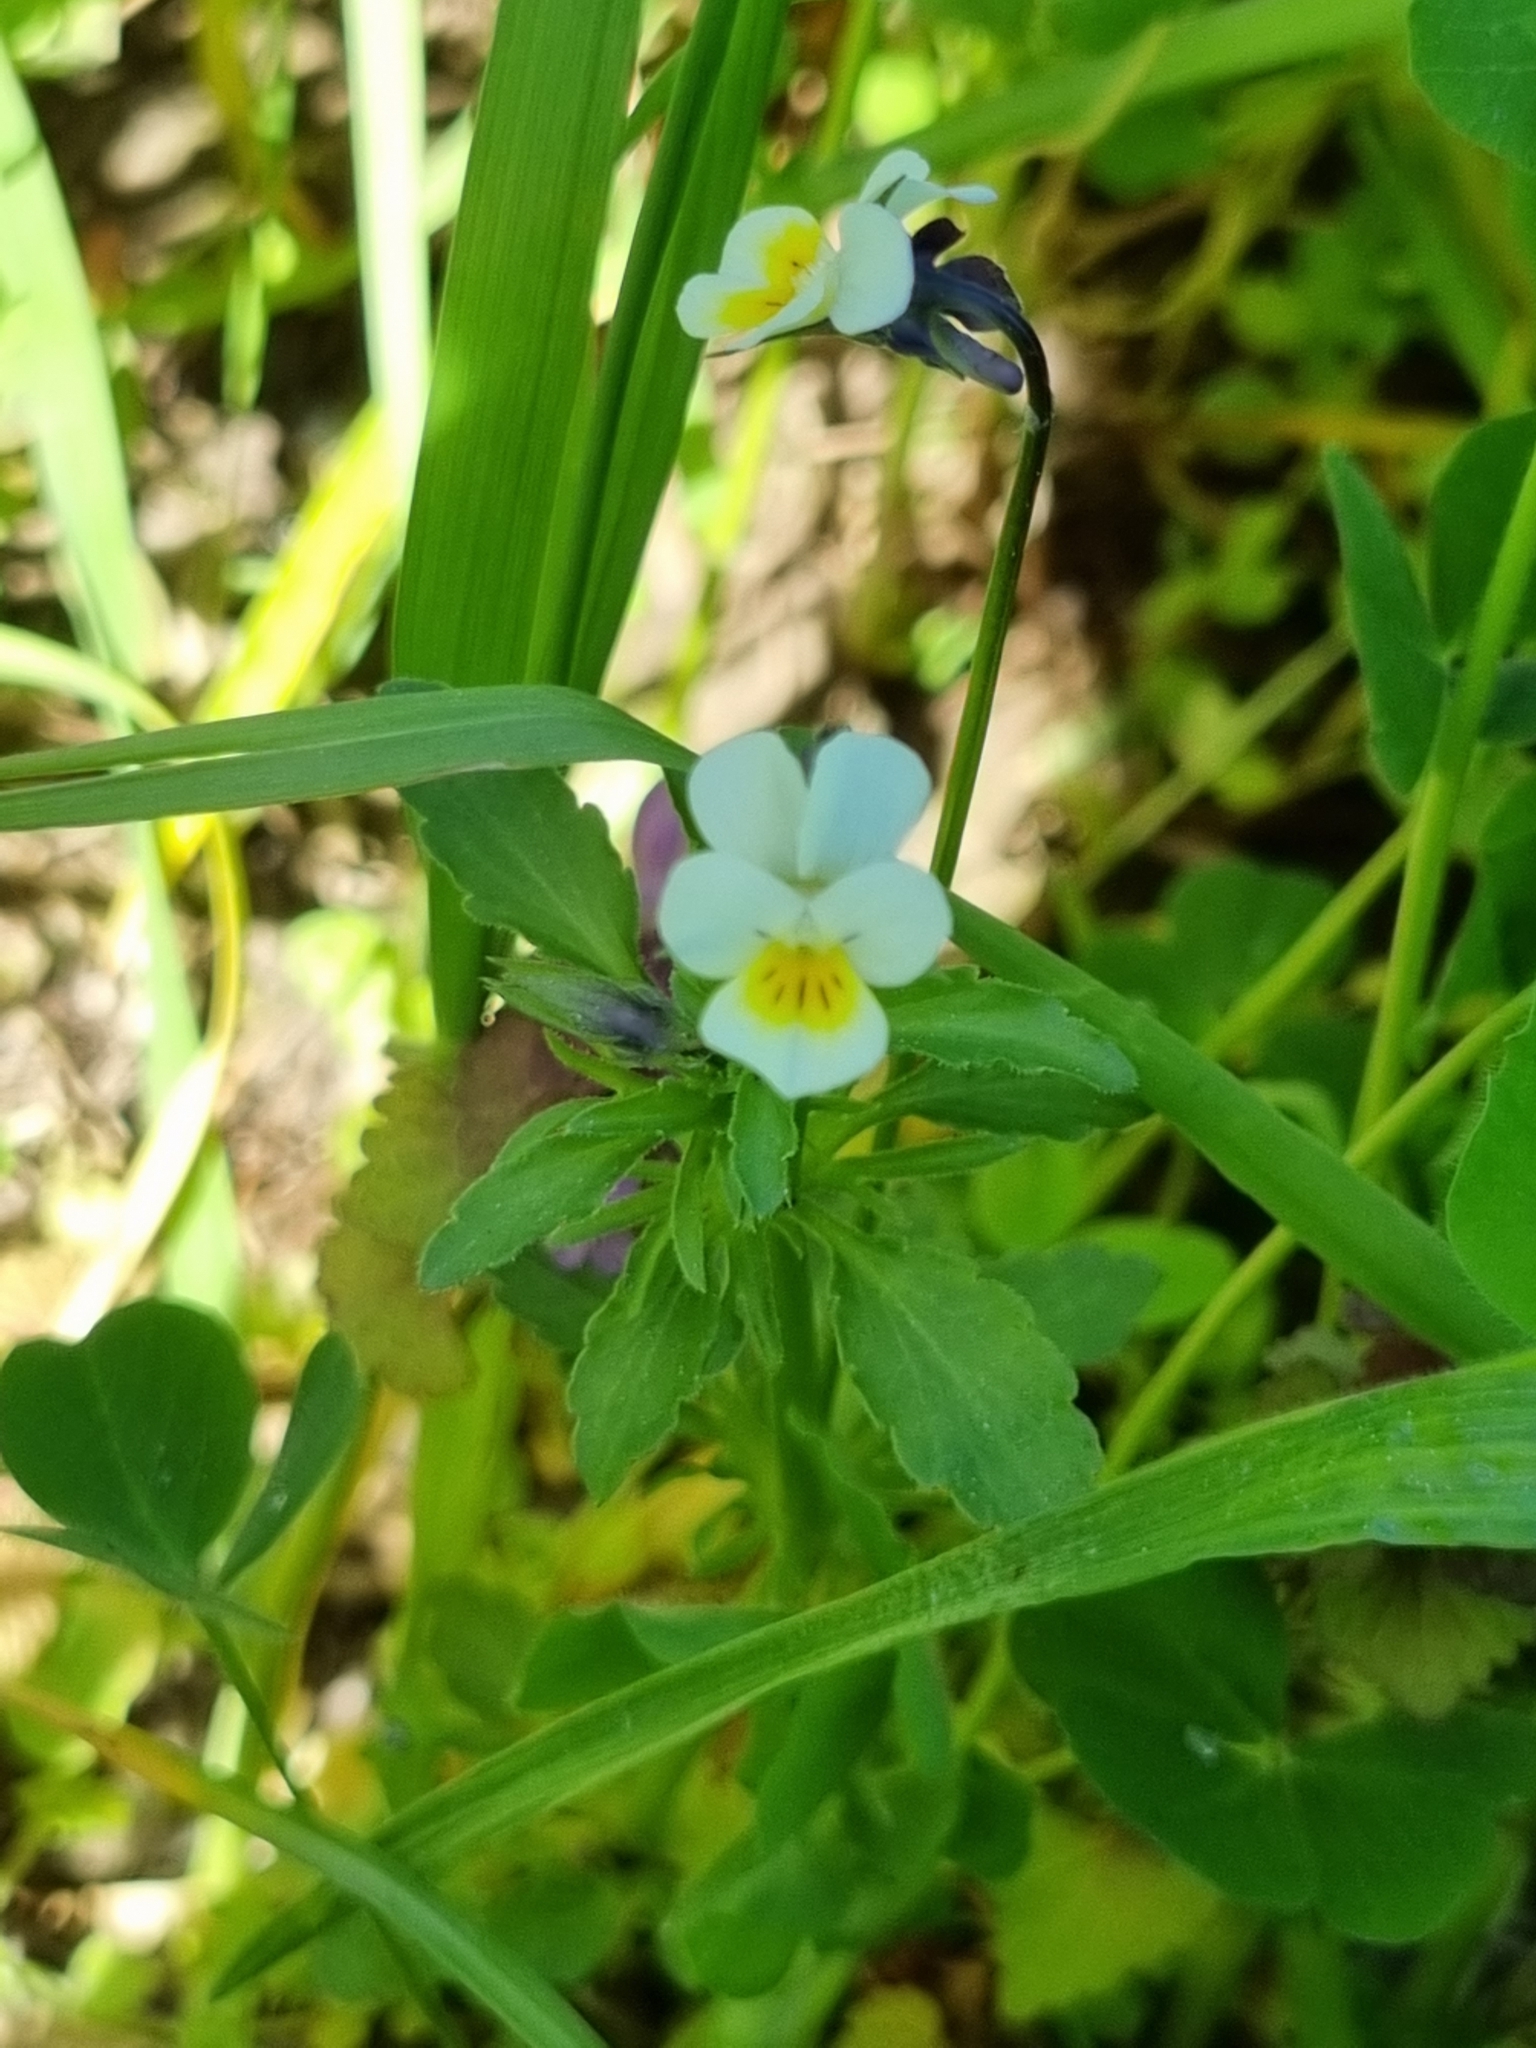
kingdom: Plantae
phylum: Tracheophyta
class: Magnoliopsida
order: Malpighiales
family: Violaceae
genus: Viola
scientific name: Viola arvensis
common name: Field pansy
